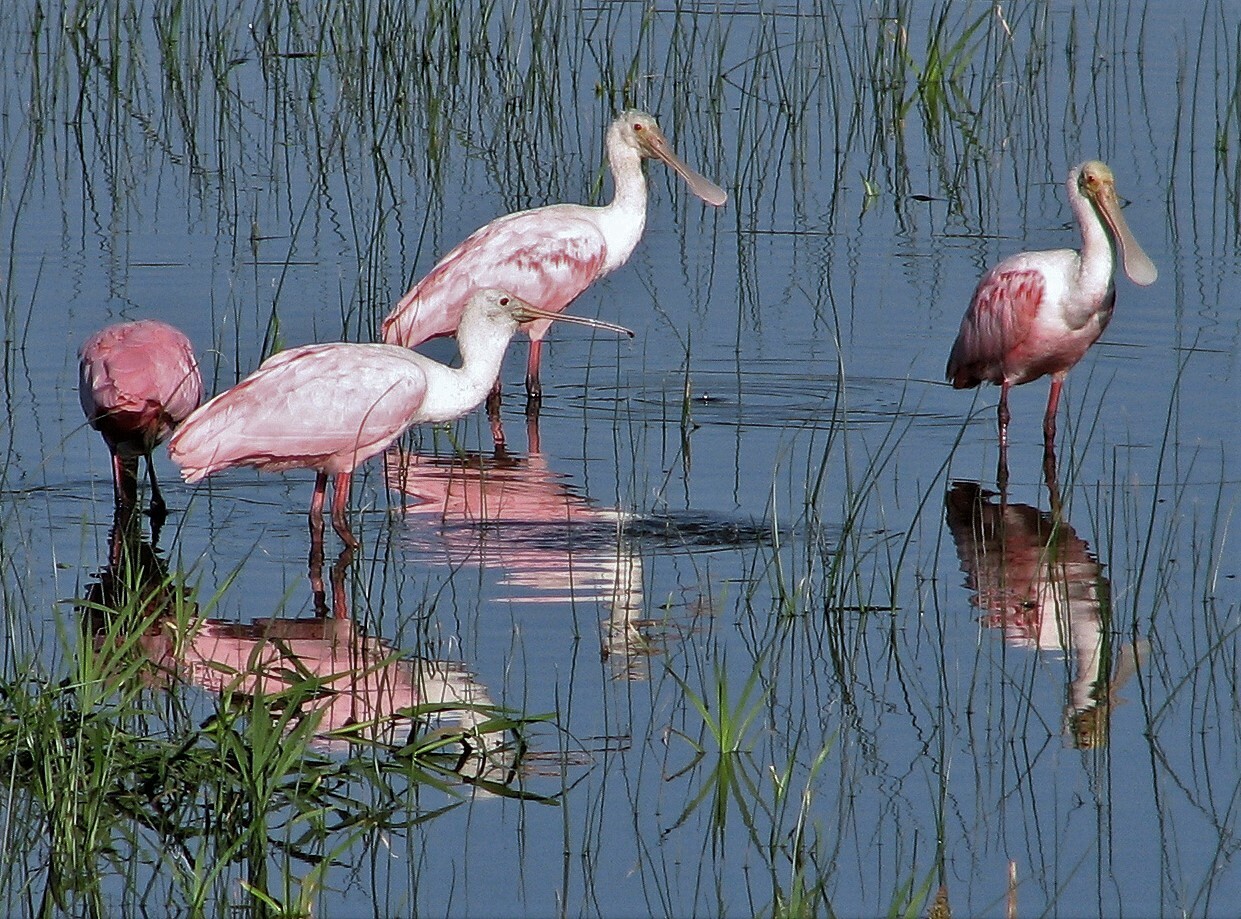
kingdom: Animalia
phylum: Chordata
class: Aves
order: Pelecaniformes
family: Threskiornithidae
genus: Platalea
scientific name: Platalea ajaja
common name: Roseate spoonbill
